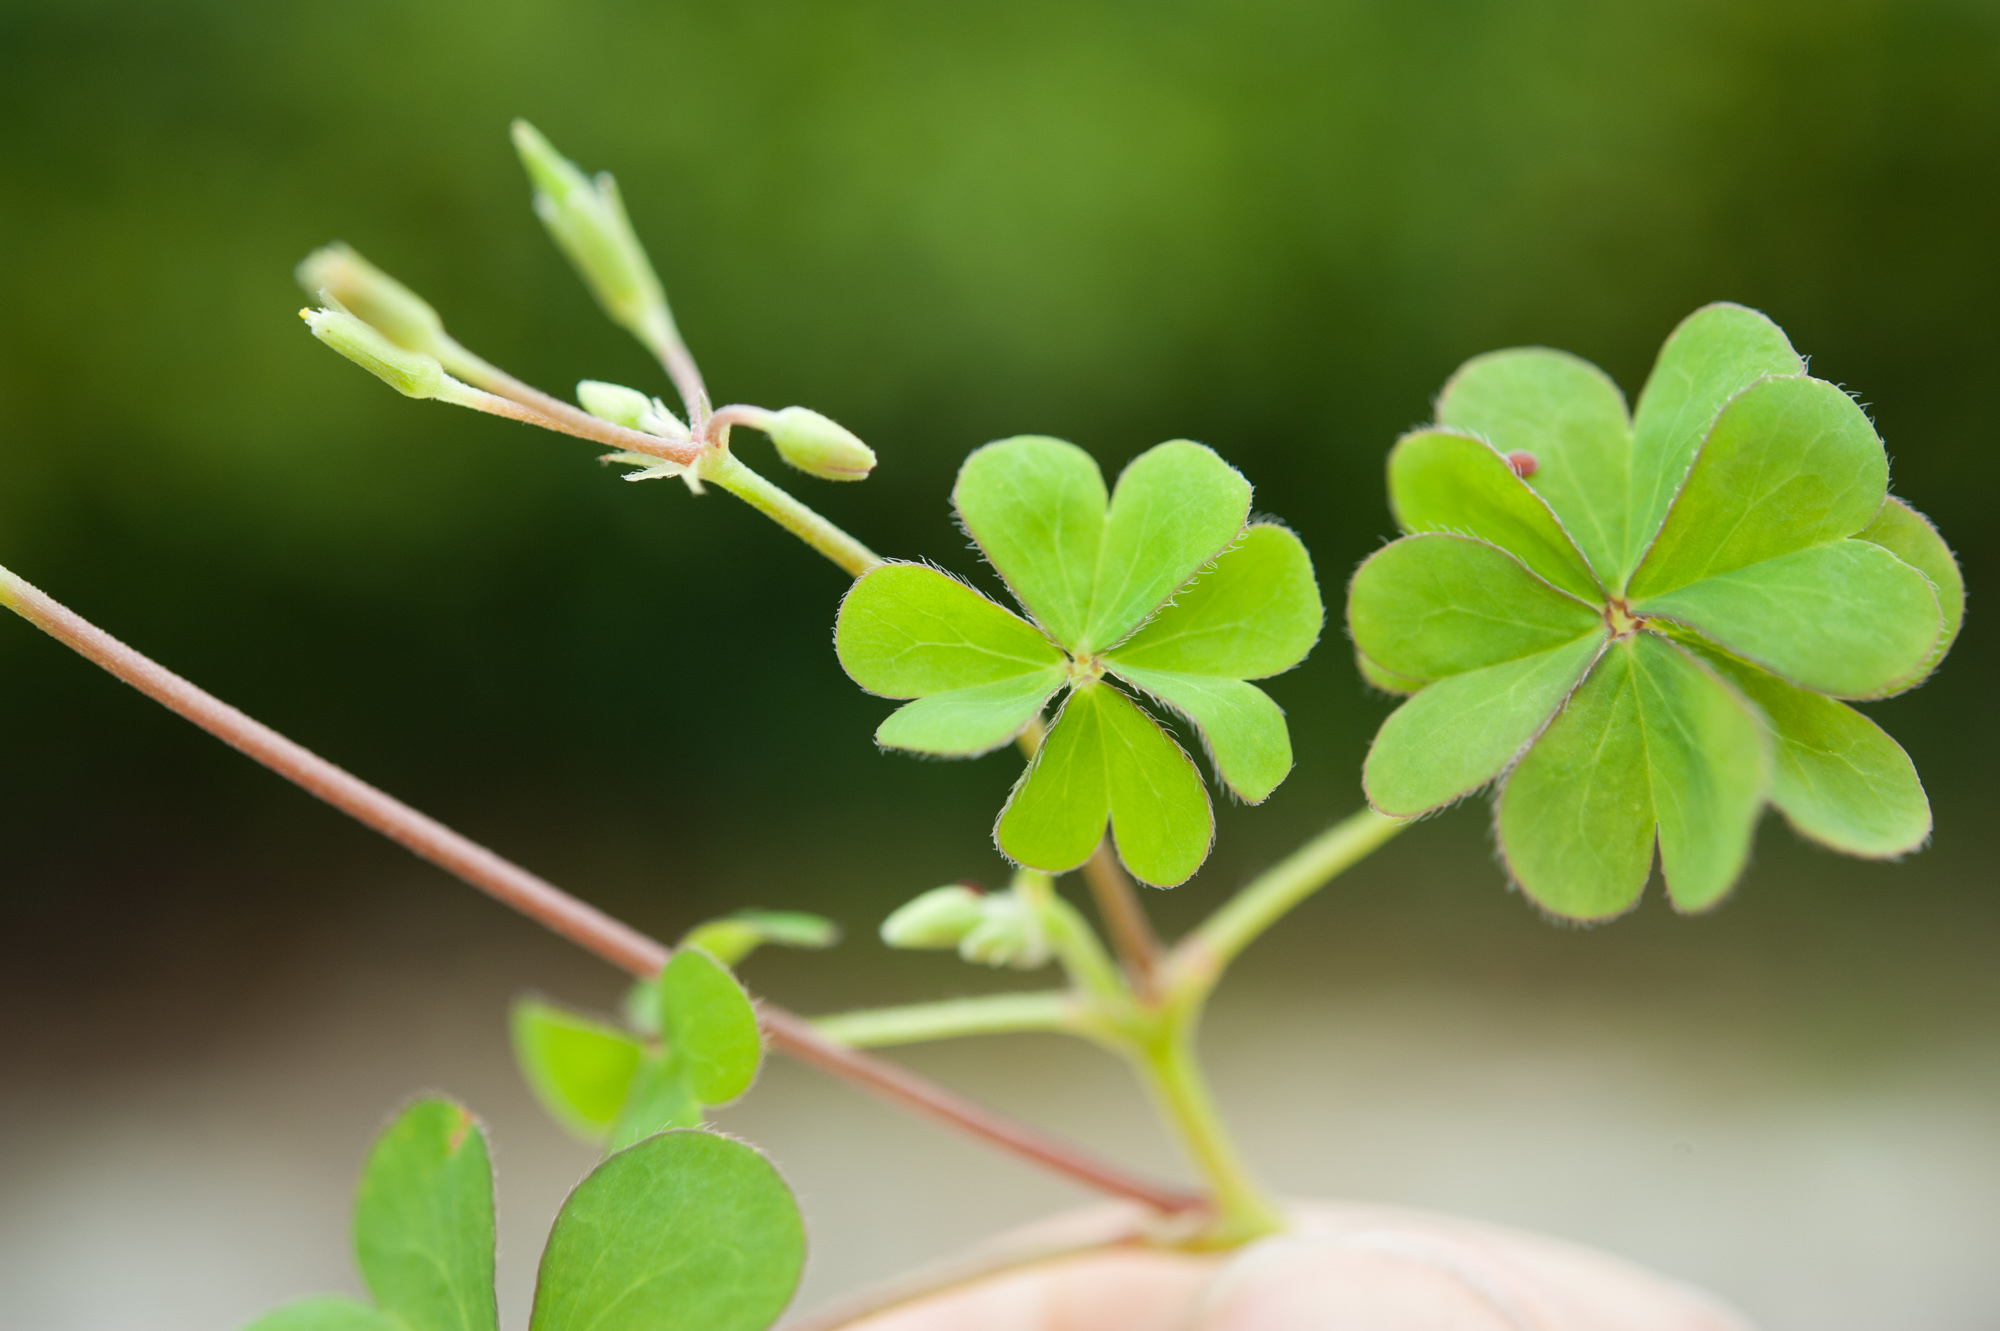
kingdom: Plantae
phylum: Tracheophyta
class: Magnoliopsida
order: Oxalidales
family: Oxalidaceae
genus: Oxalis
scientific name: Oxalis corniculata
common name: Procumbent yellow-sorrel
